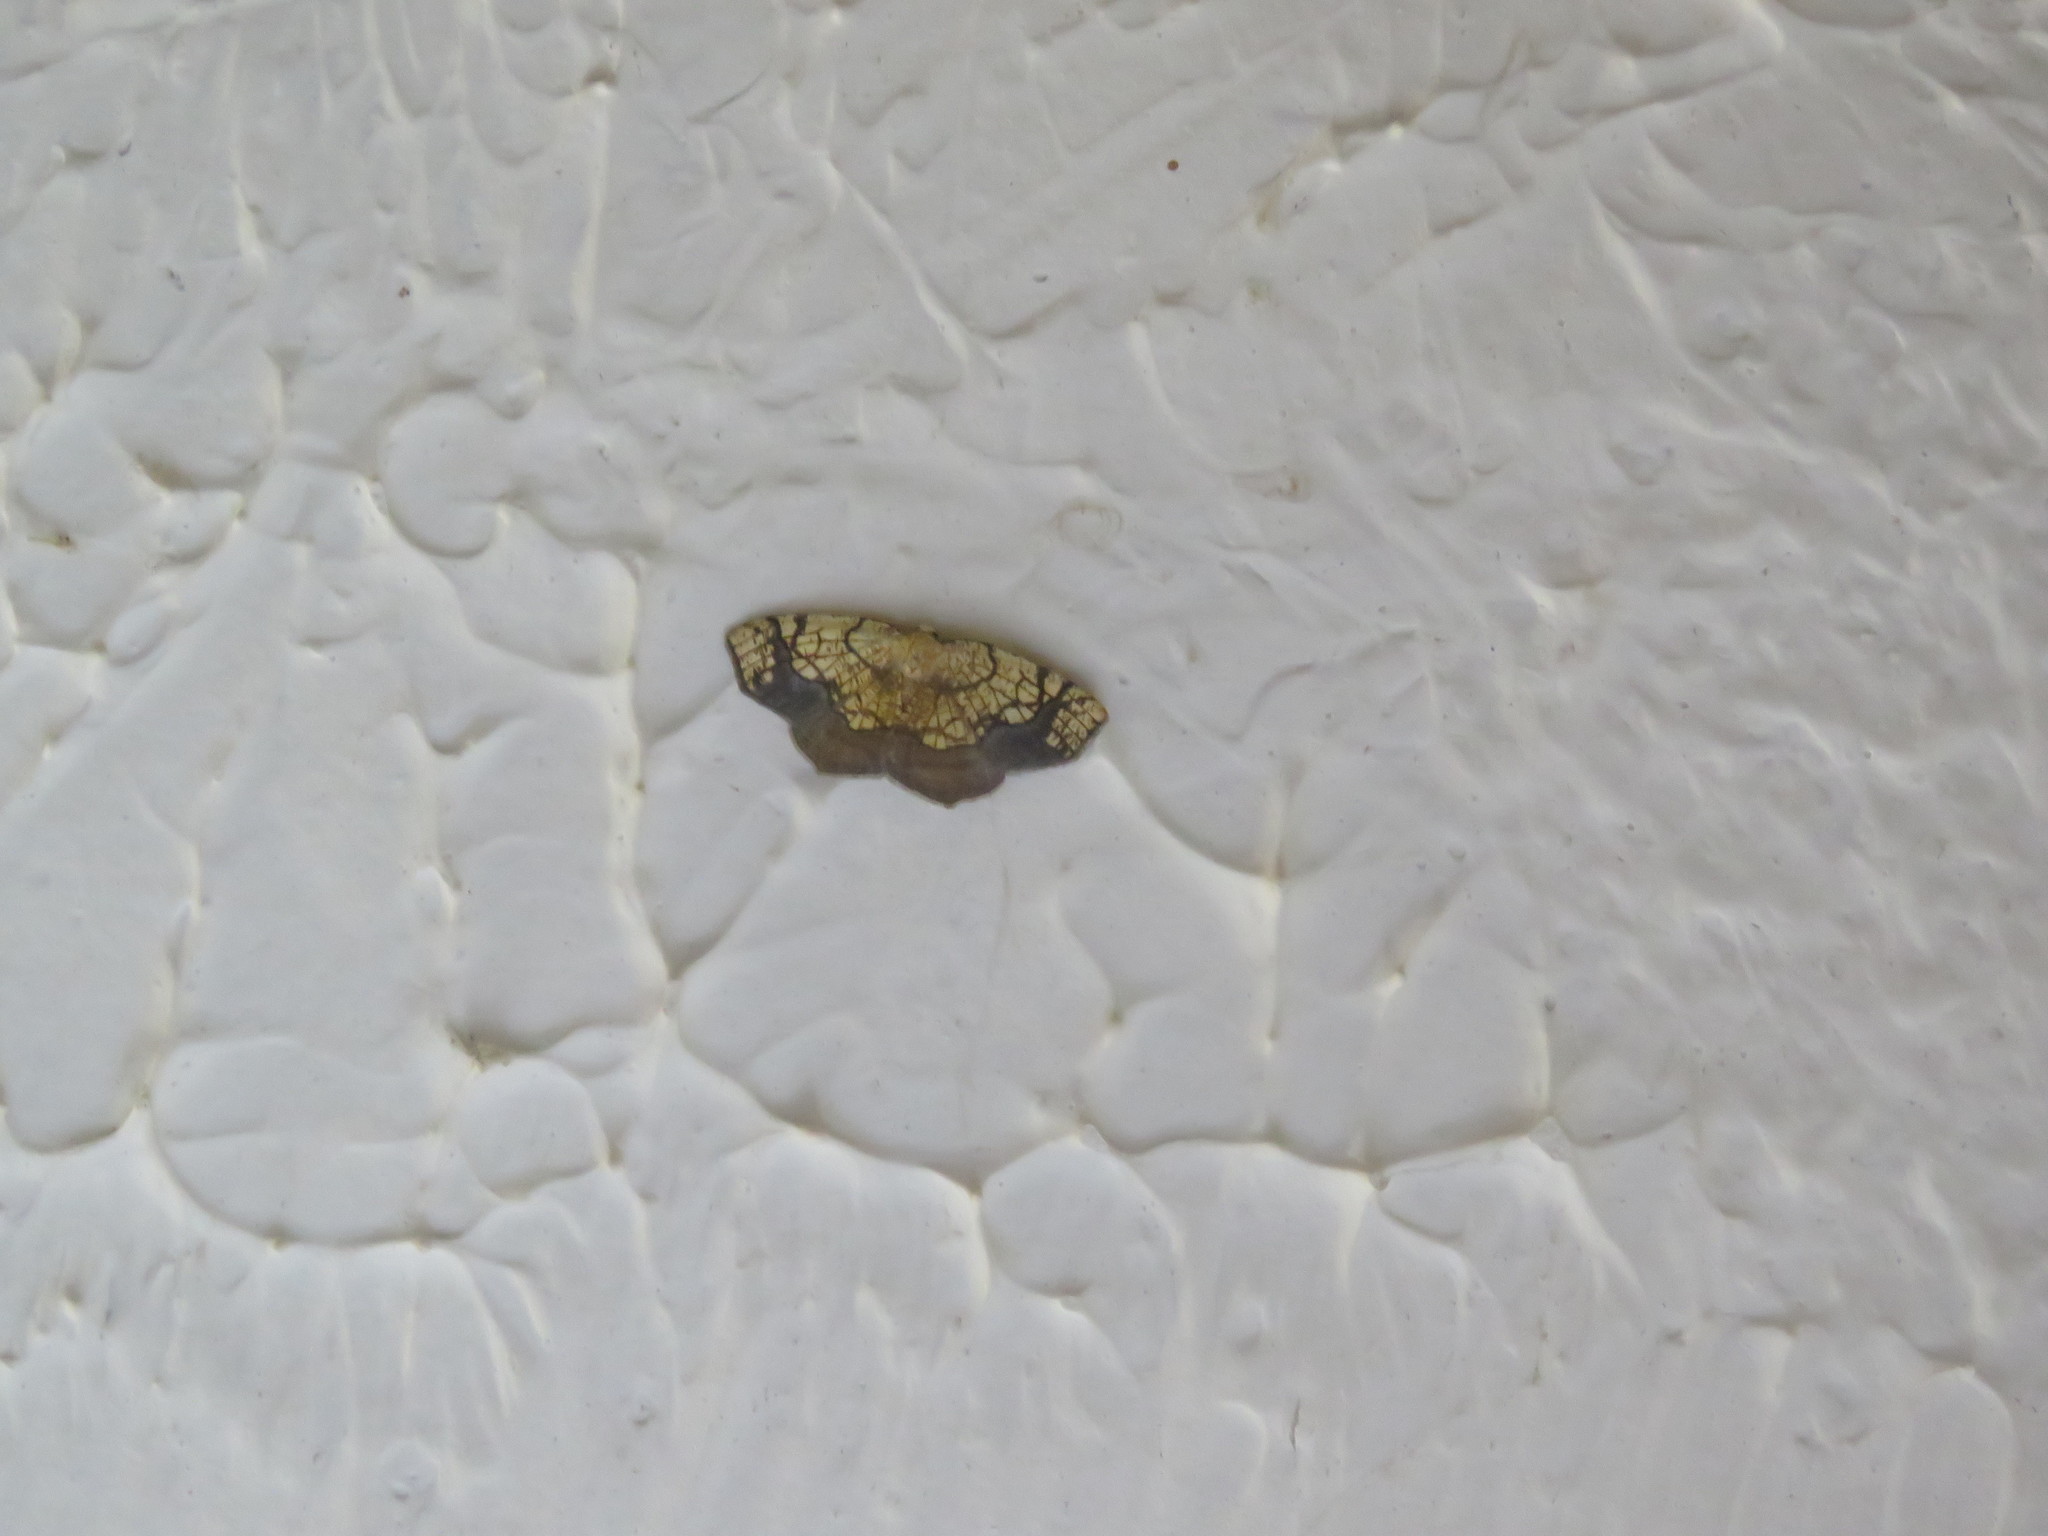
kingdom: Animalia
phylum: Arthropoda
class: Insecta
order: Lepidoptera
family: Geometridae
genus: Nematocampa
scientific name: Nematocampa resistaria
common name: Horned spanworm moth
